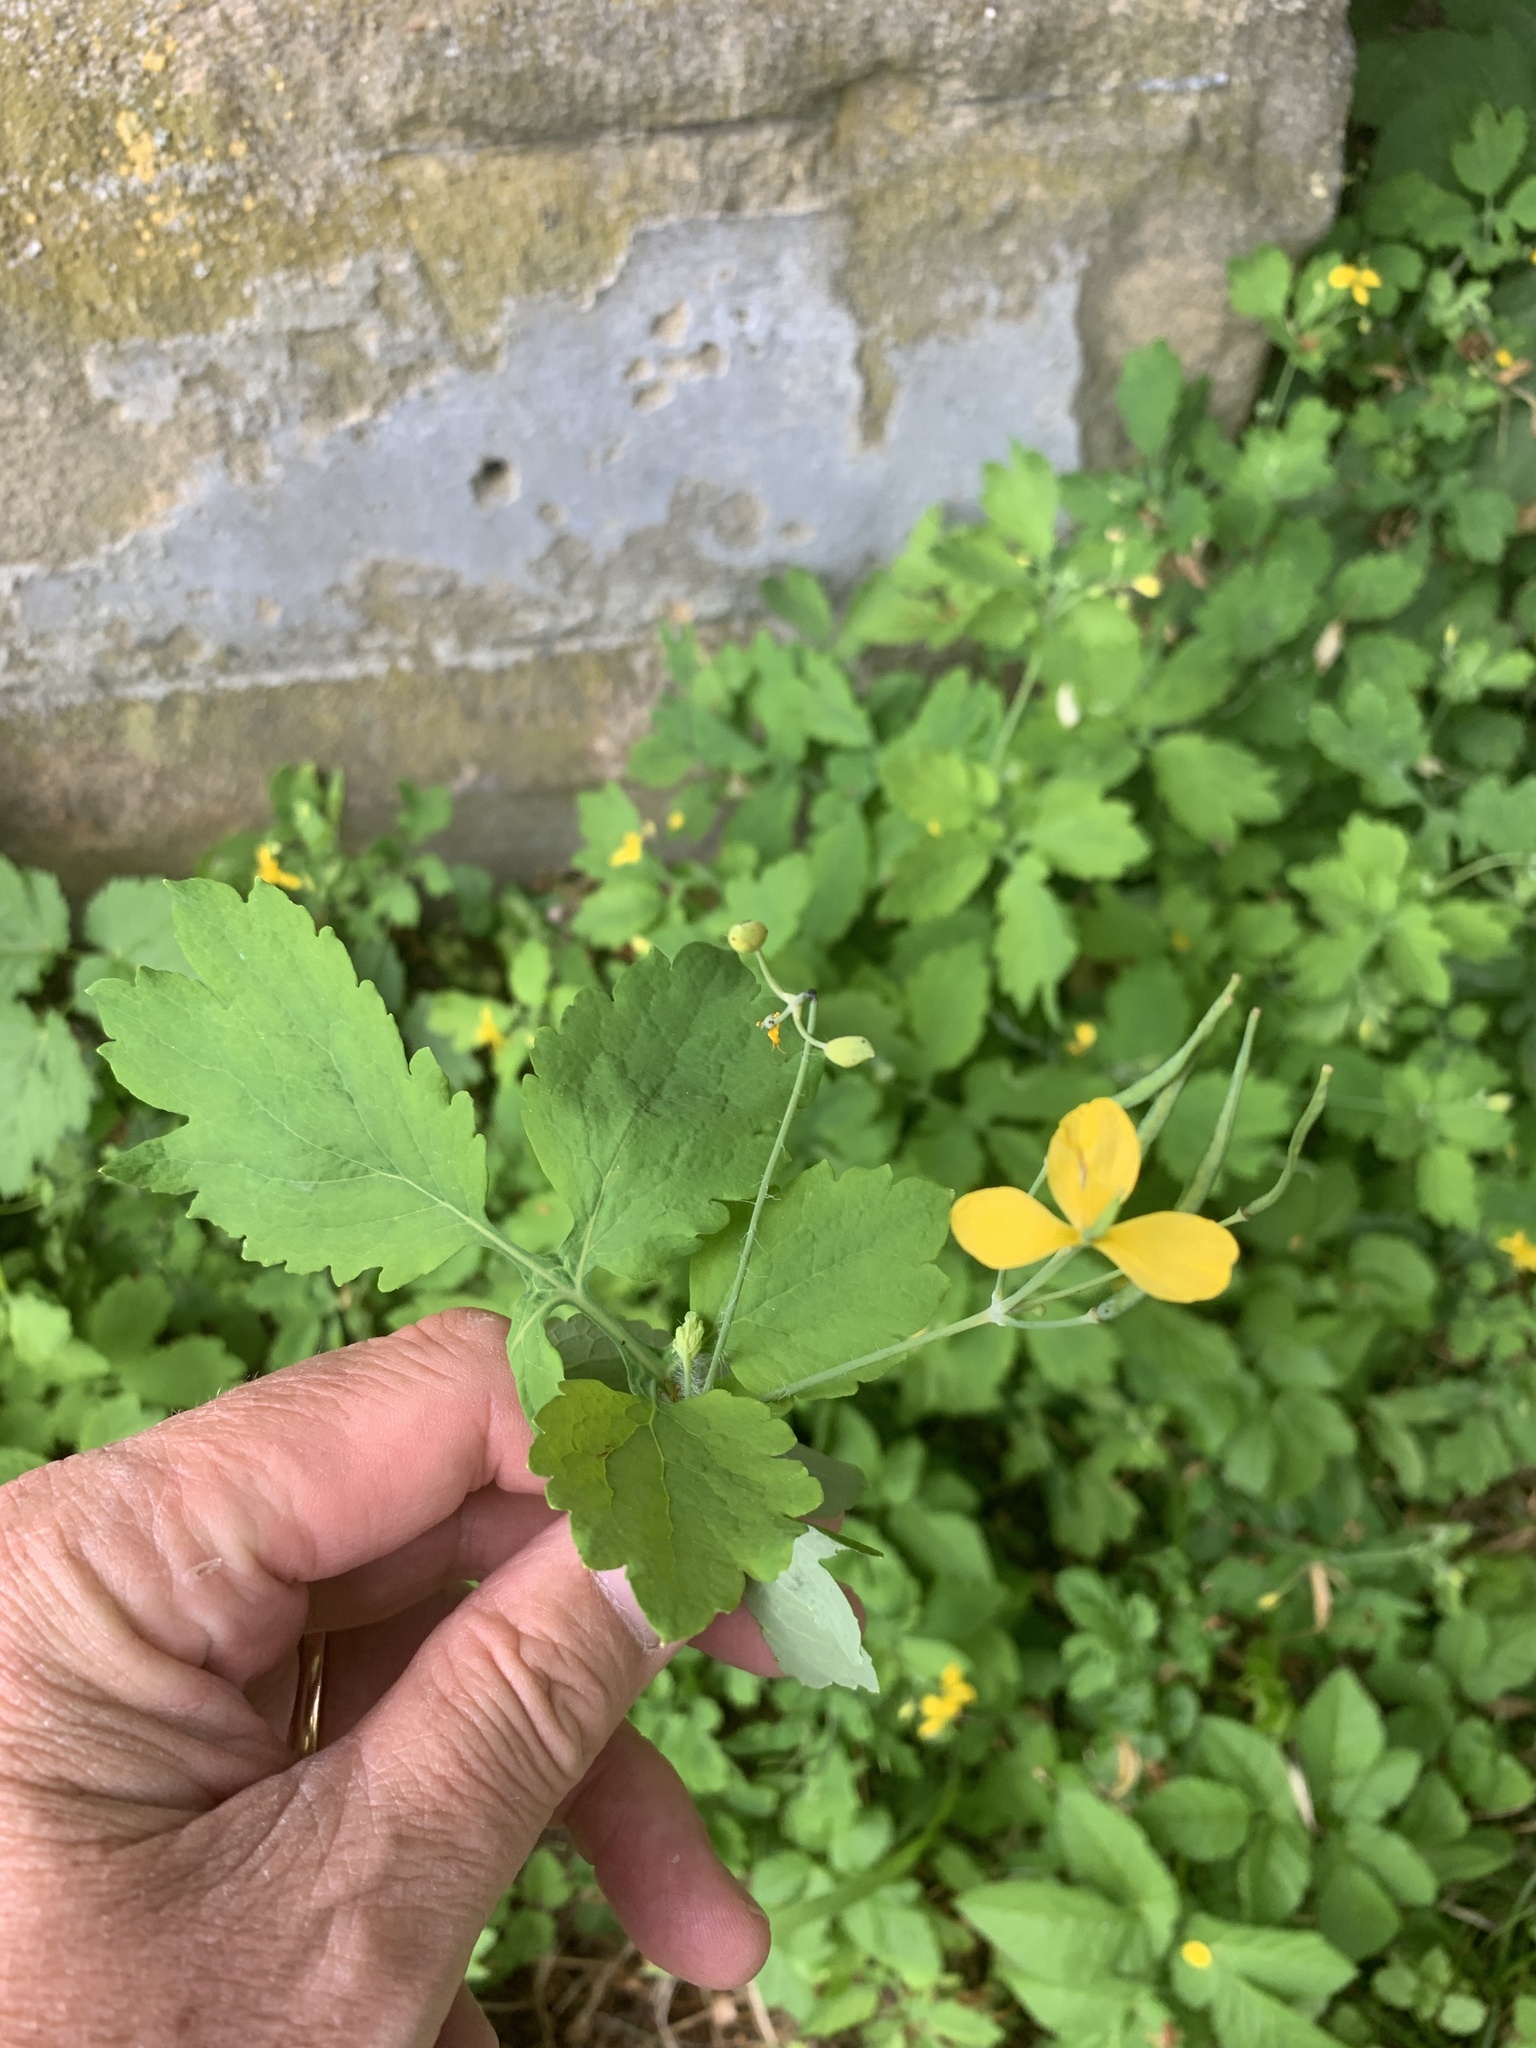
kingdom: Plantae
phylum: Tracheophyta
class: Magnoliopsida
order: Ranunculales
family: Papaveraceae
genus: Chelidonium
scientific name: Chelidonium majus
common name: Greater celandine
